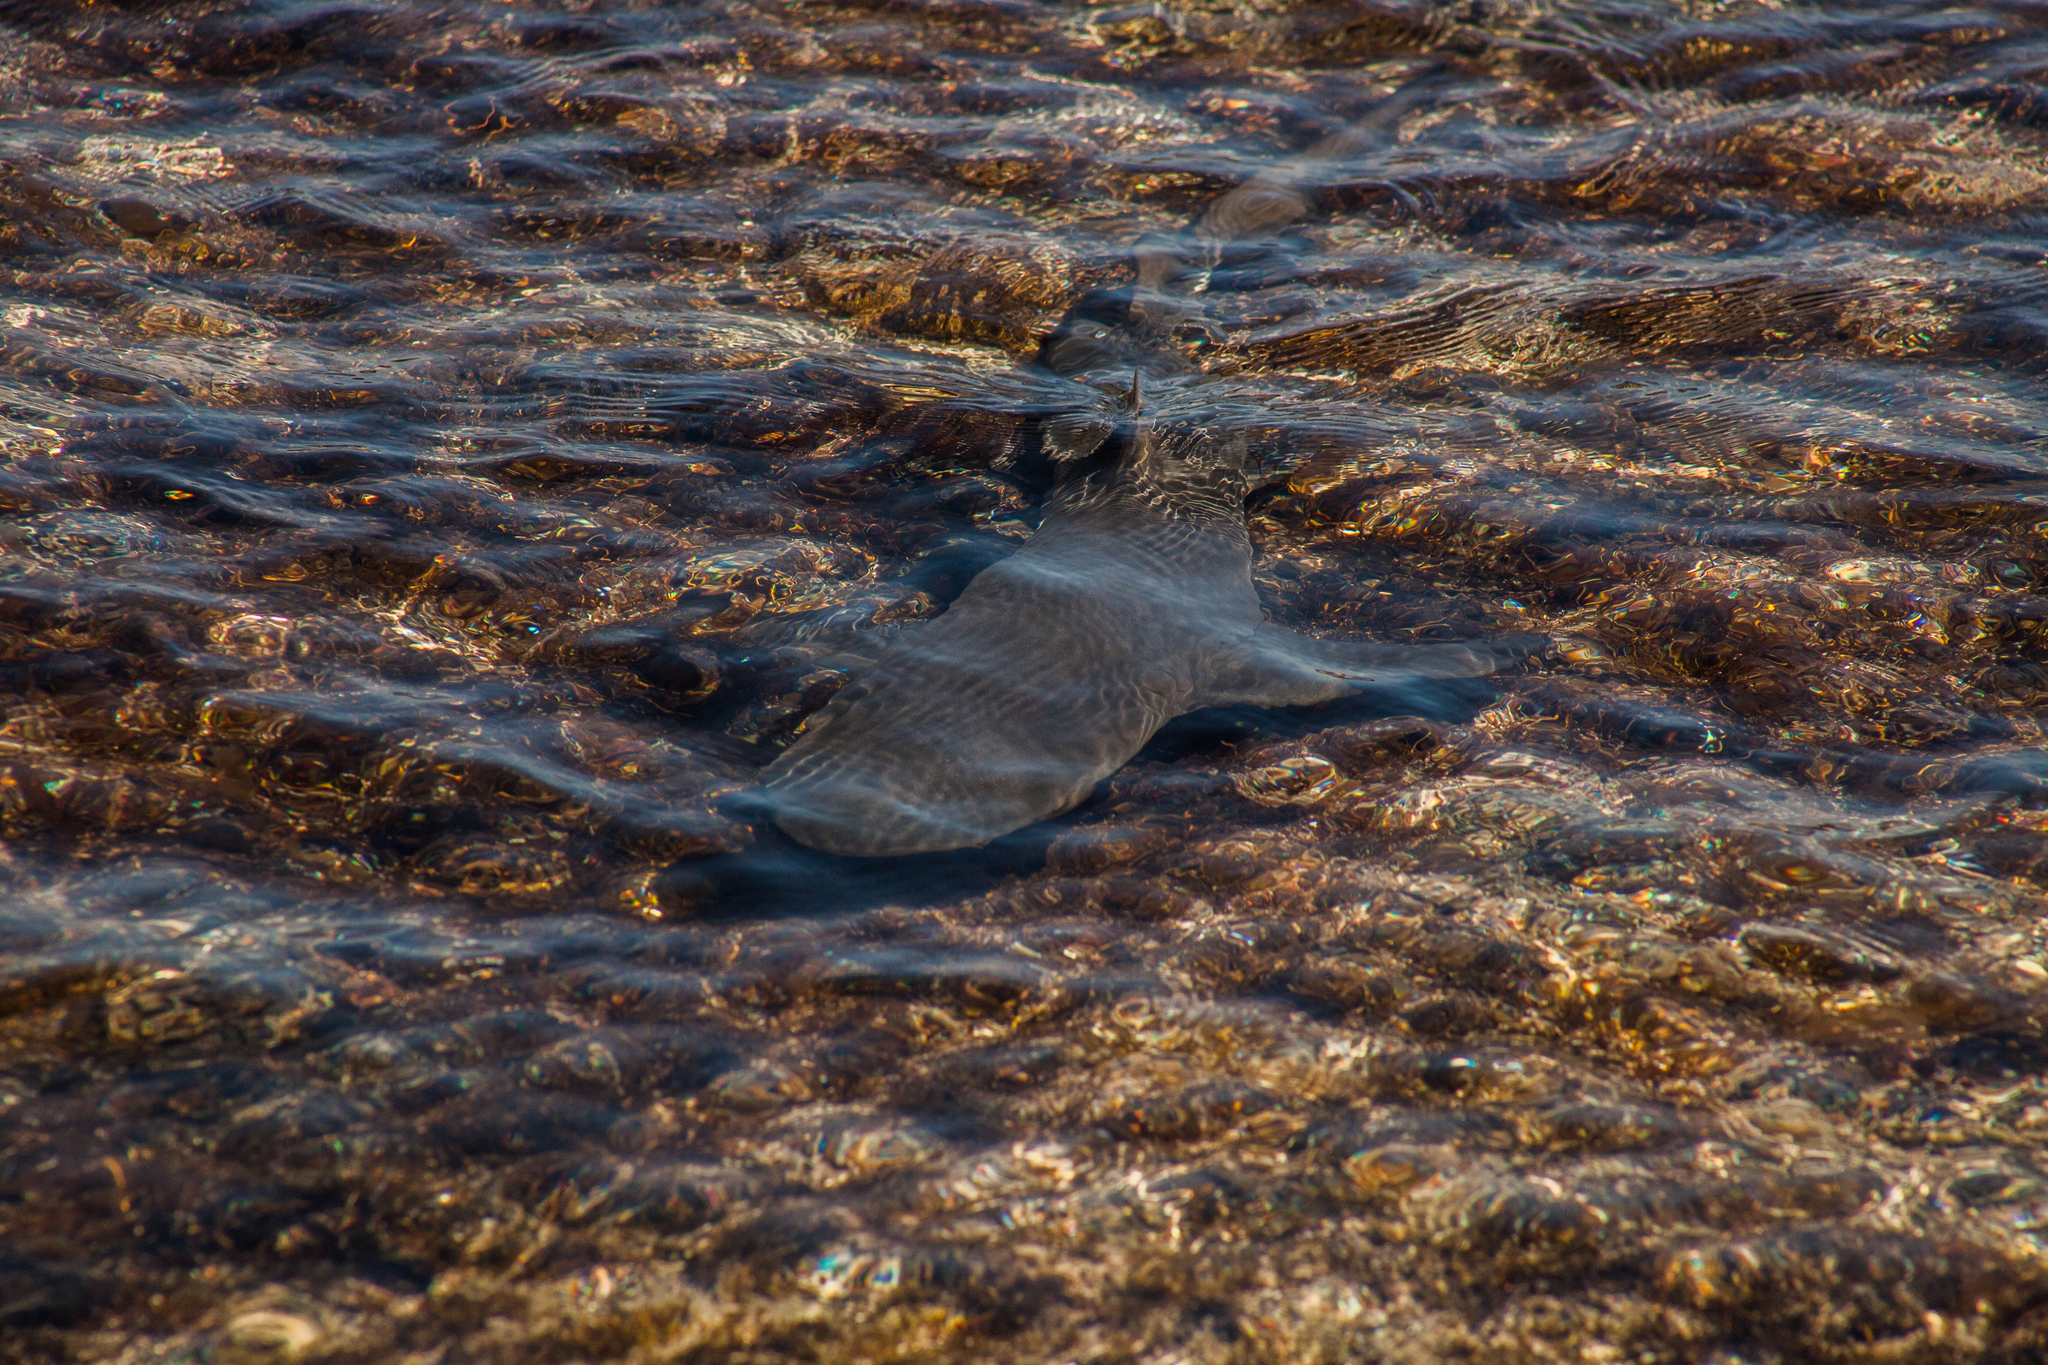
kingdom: Animalia
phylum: Chordata
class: Elasmobranchii
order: Carcharhiniformes
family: Carcharhinidae
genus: Negaprion
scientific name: Negaprion brevirostris
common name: Lemon shark
